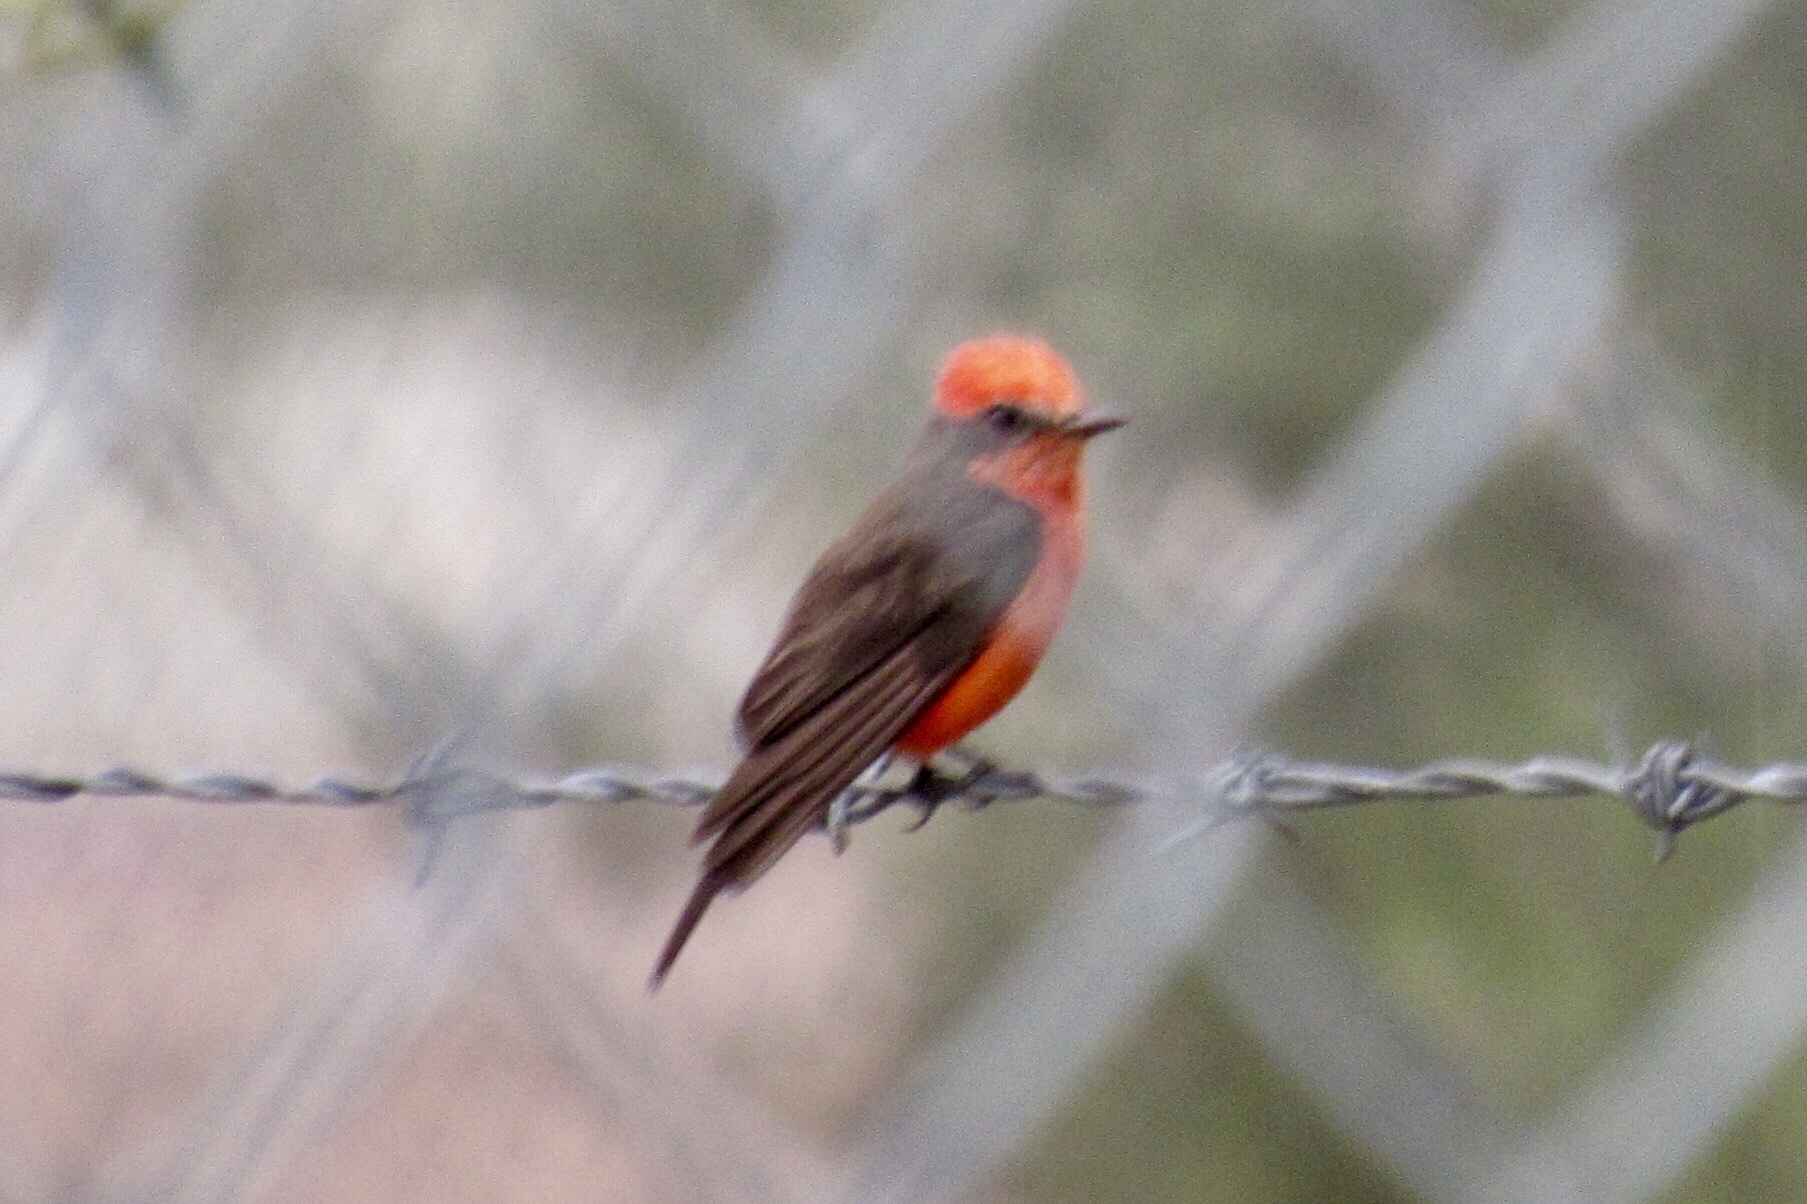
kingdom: Animalia
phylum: Chordata
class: Aves
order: Passeriformes
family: Tyrannidae
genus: Pyrocephalus
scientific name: Pyrocephalus rubinus
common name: Vermilion flycatcher
